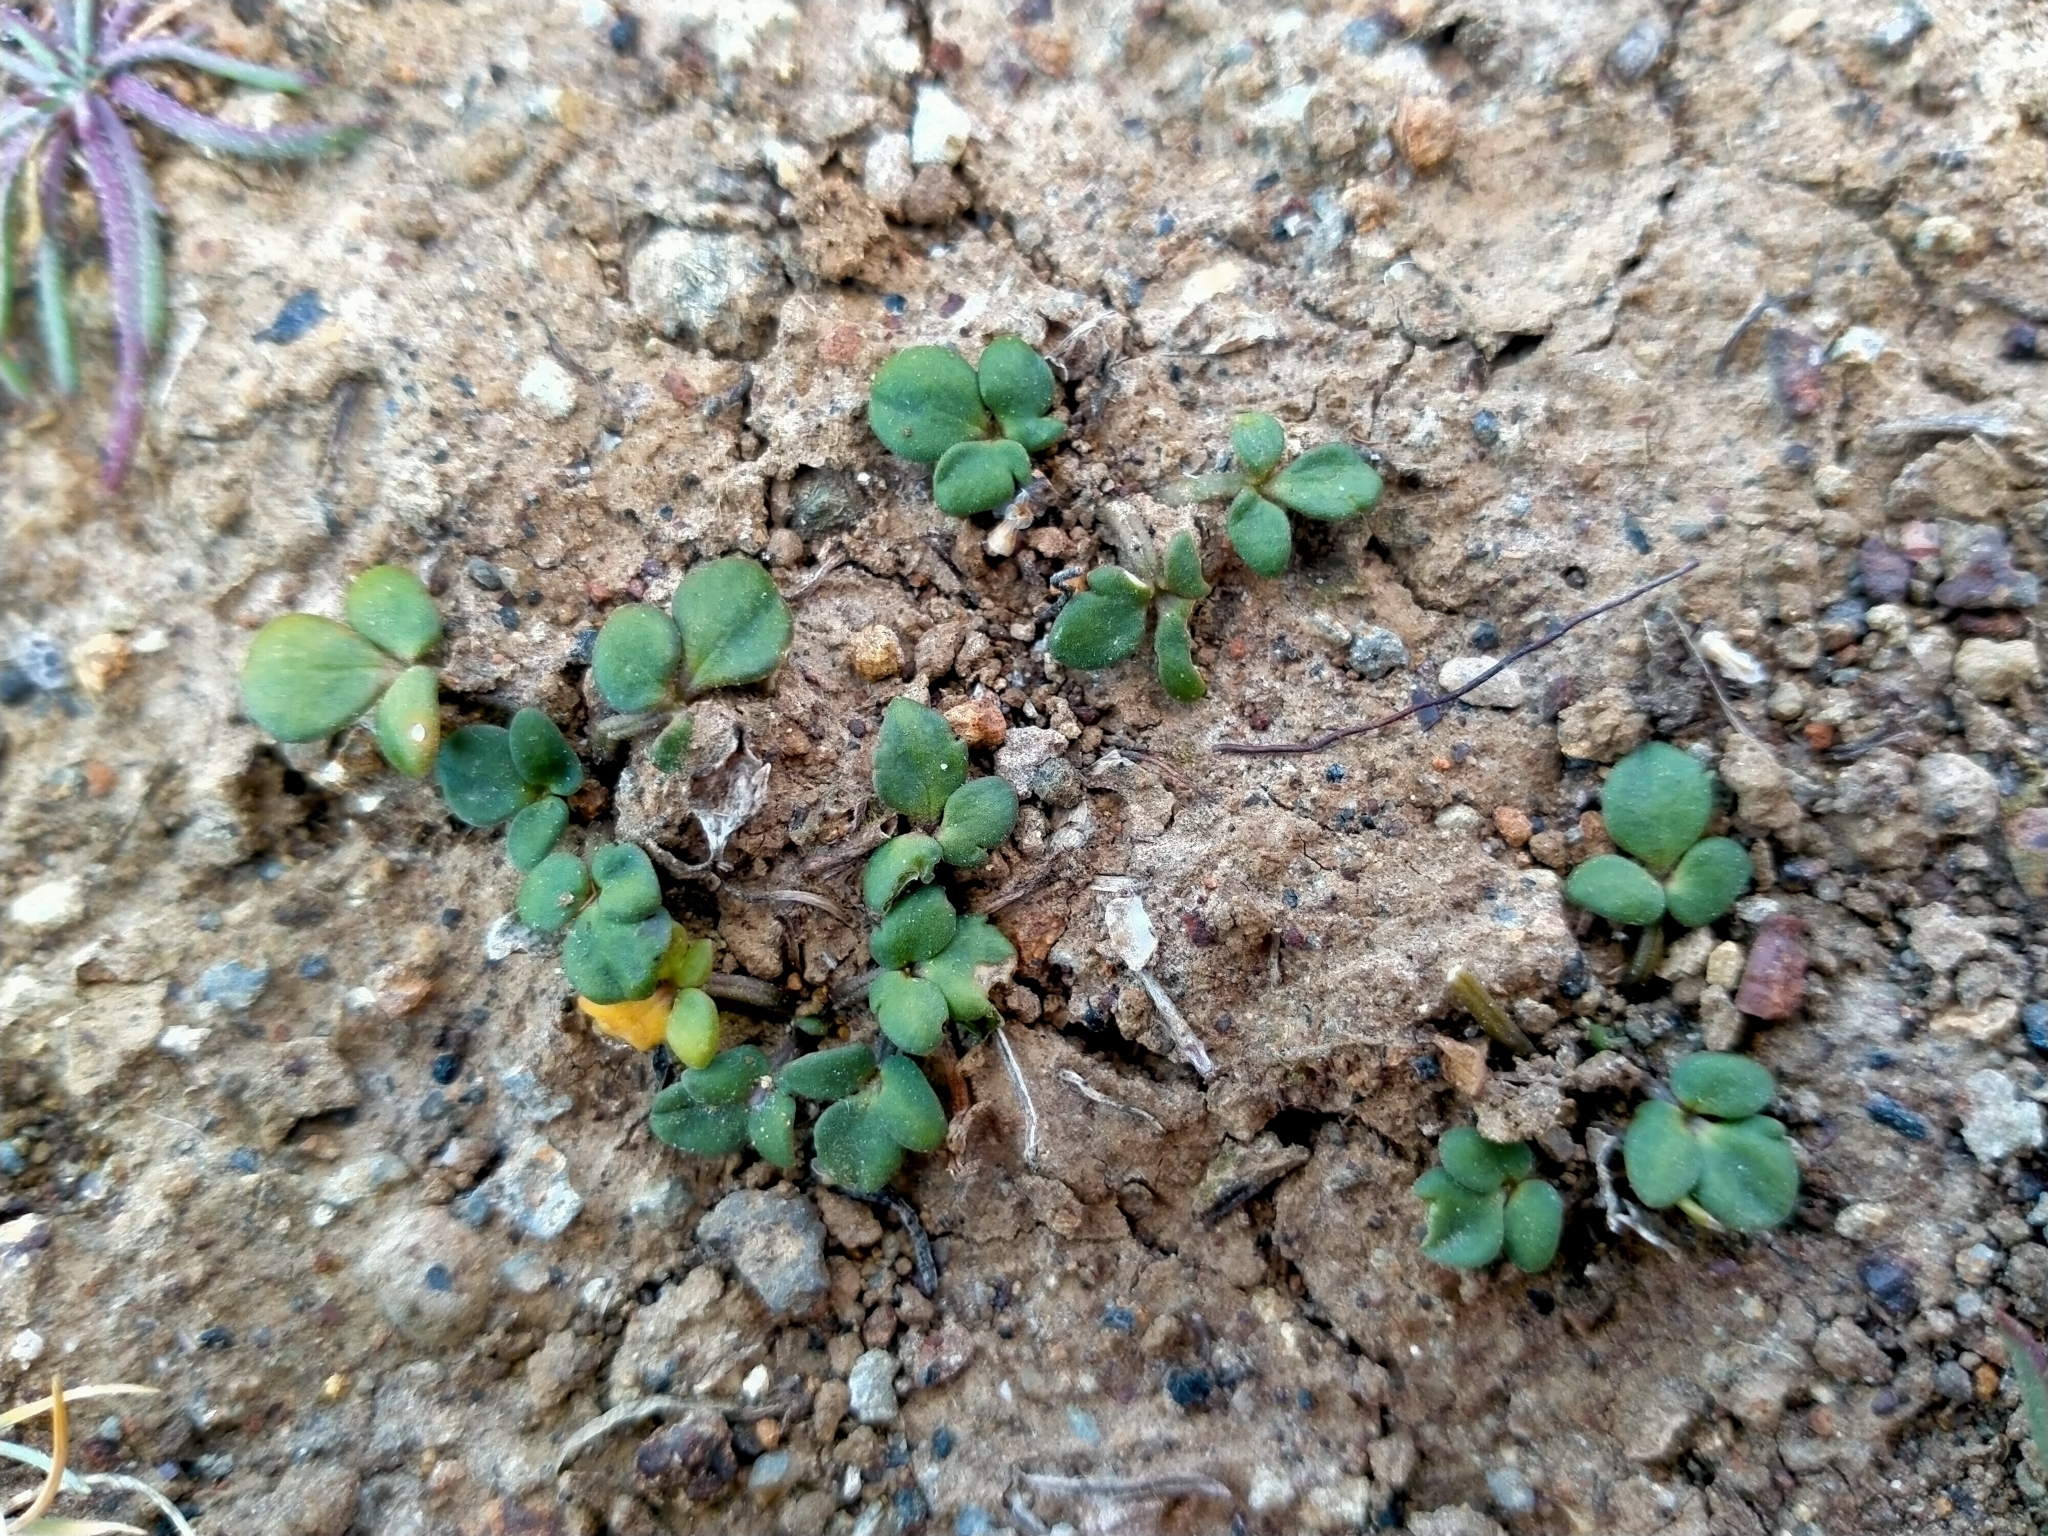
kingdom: Plantae
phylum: Tracheophyta
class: Magnoliopsida
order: Ranunculales
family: Ranunculaceae
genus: Ranunculus
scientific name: Ranunculus acaulis
